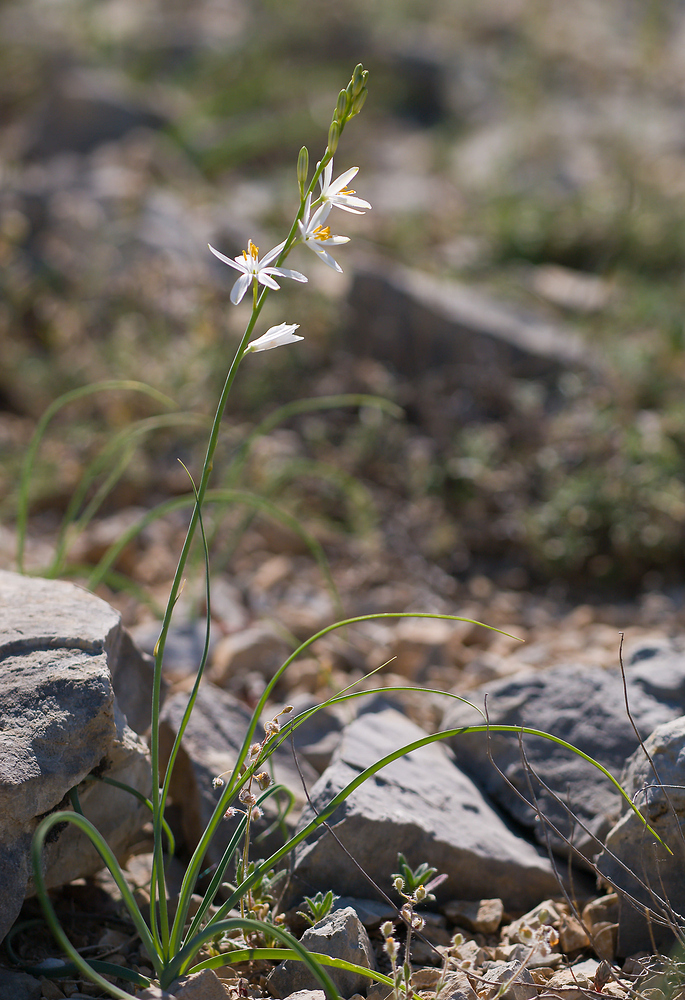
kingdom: Plantae
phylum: Tracheophyta
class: Liliopsida
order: Asparagales
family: Asparagaceae
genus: Anthericum
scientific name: Anthericum liliago
